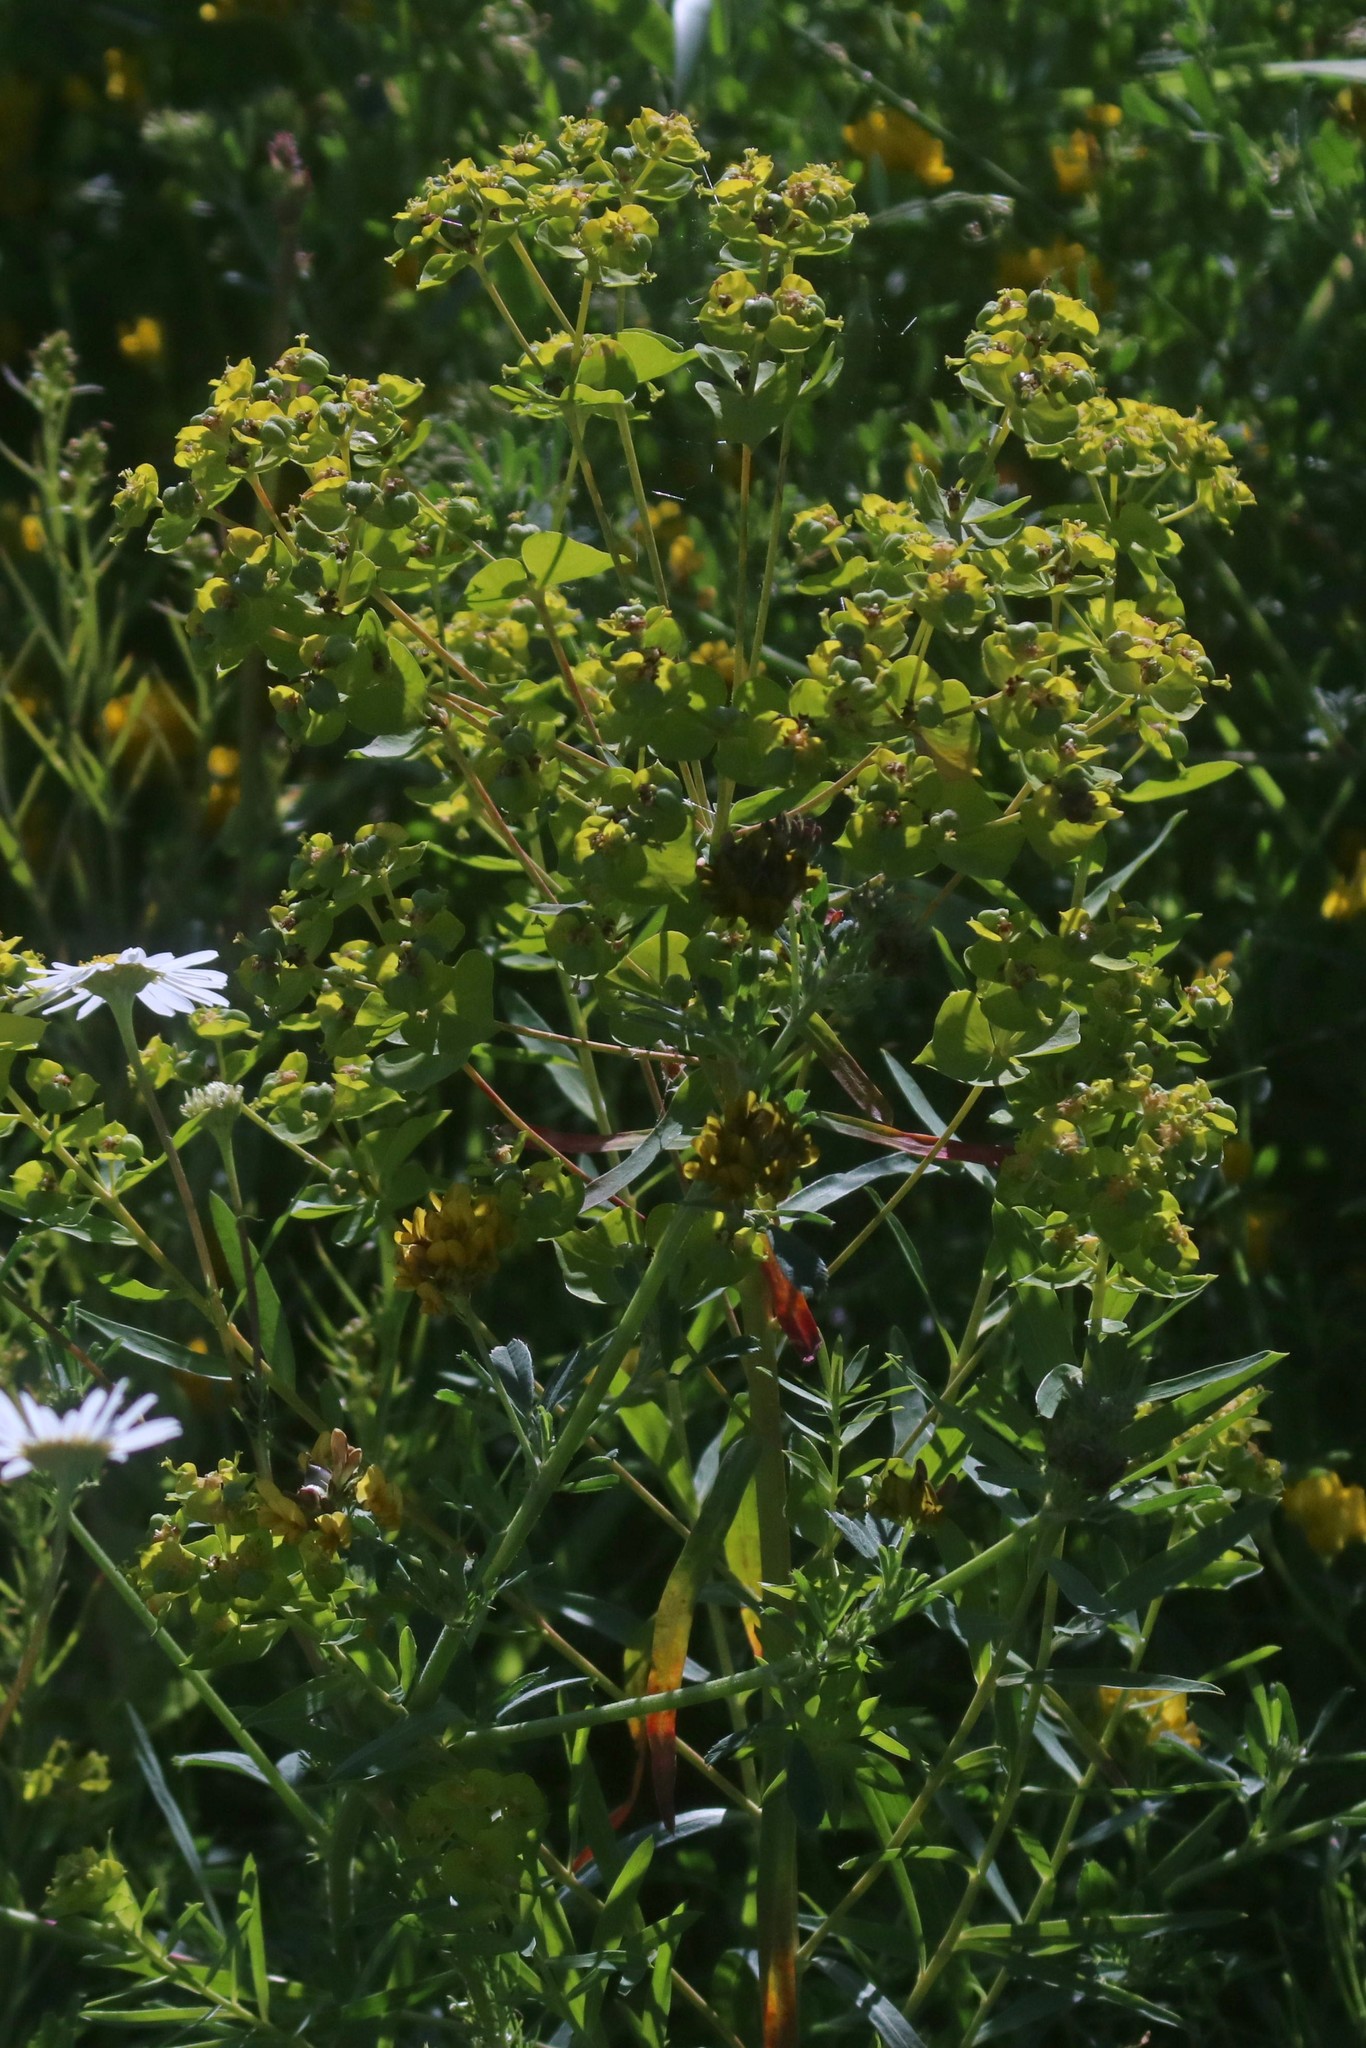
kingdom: Plantae
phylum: Tracheophyta
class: Magnoliopsida
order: Malpighiales
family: Euphorbiaceae
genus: Euphorbia
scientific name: Euphorbia virgata
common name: Leafy spurge
